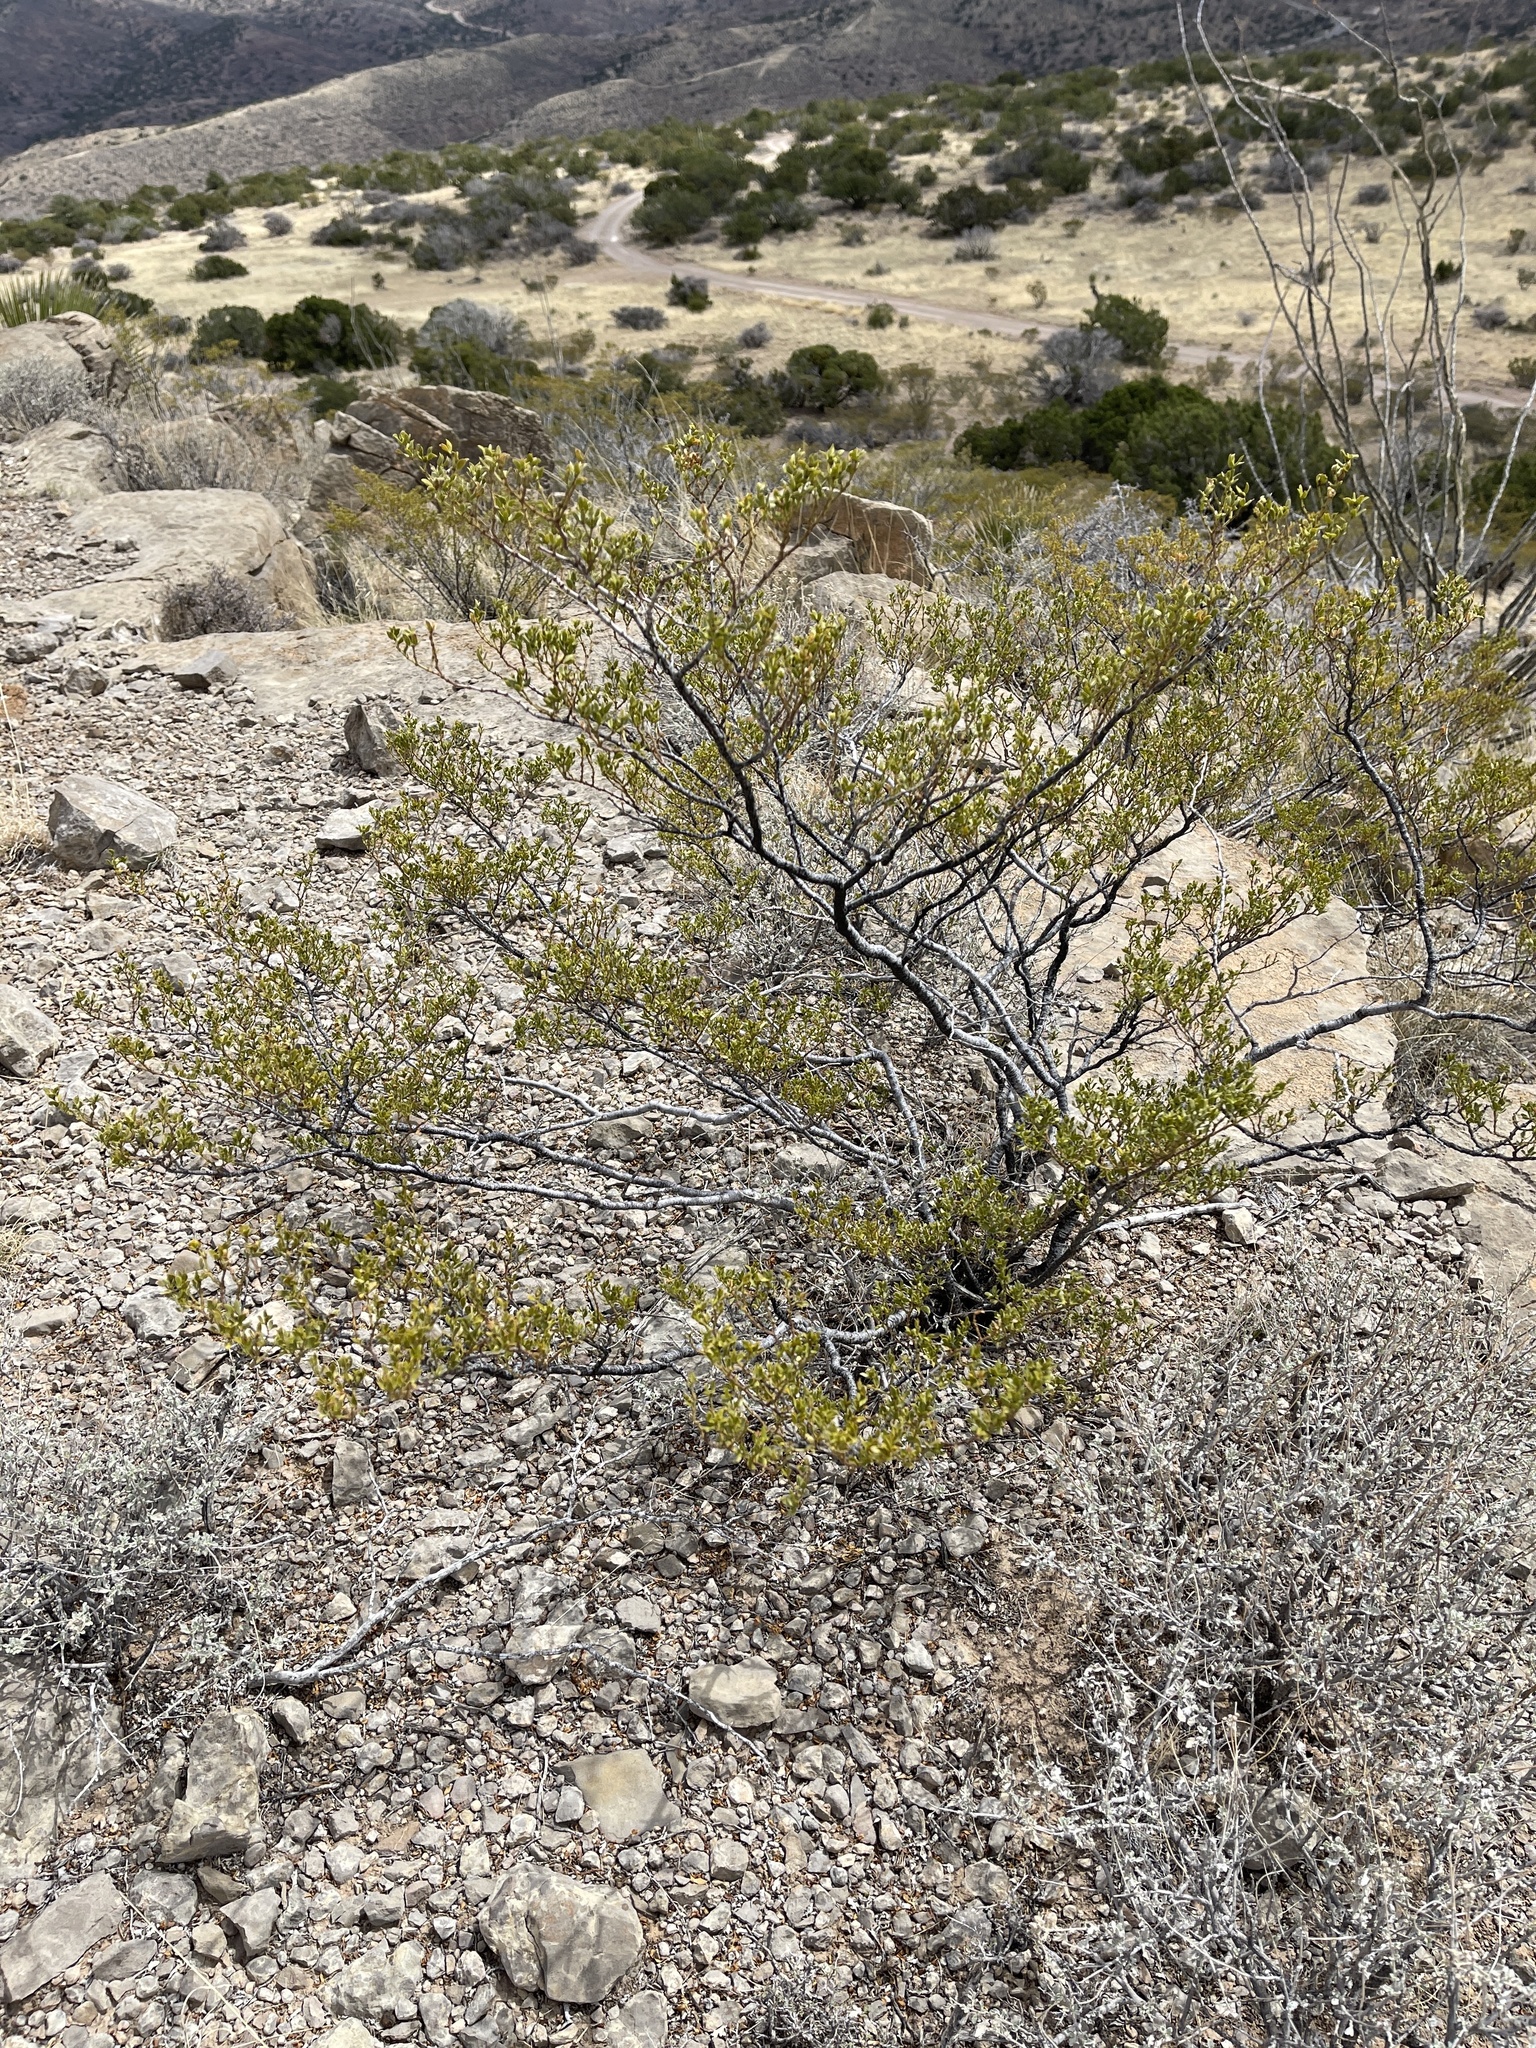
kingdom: Plantae
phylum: Tracheophyta
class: Magnoliopsida
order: Zygophyllales
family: Zygophyllaceae
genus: Larrea
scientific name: Larrea tridentata
